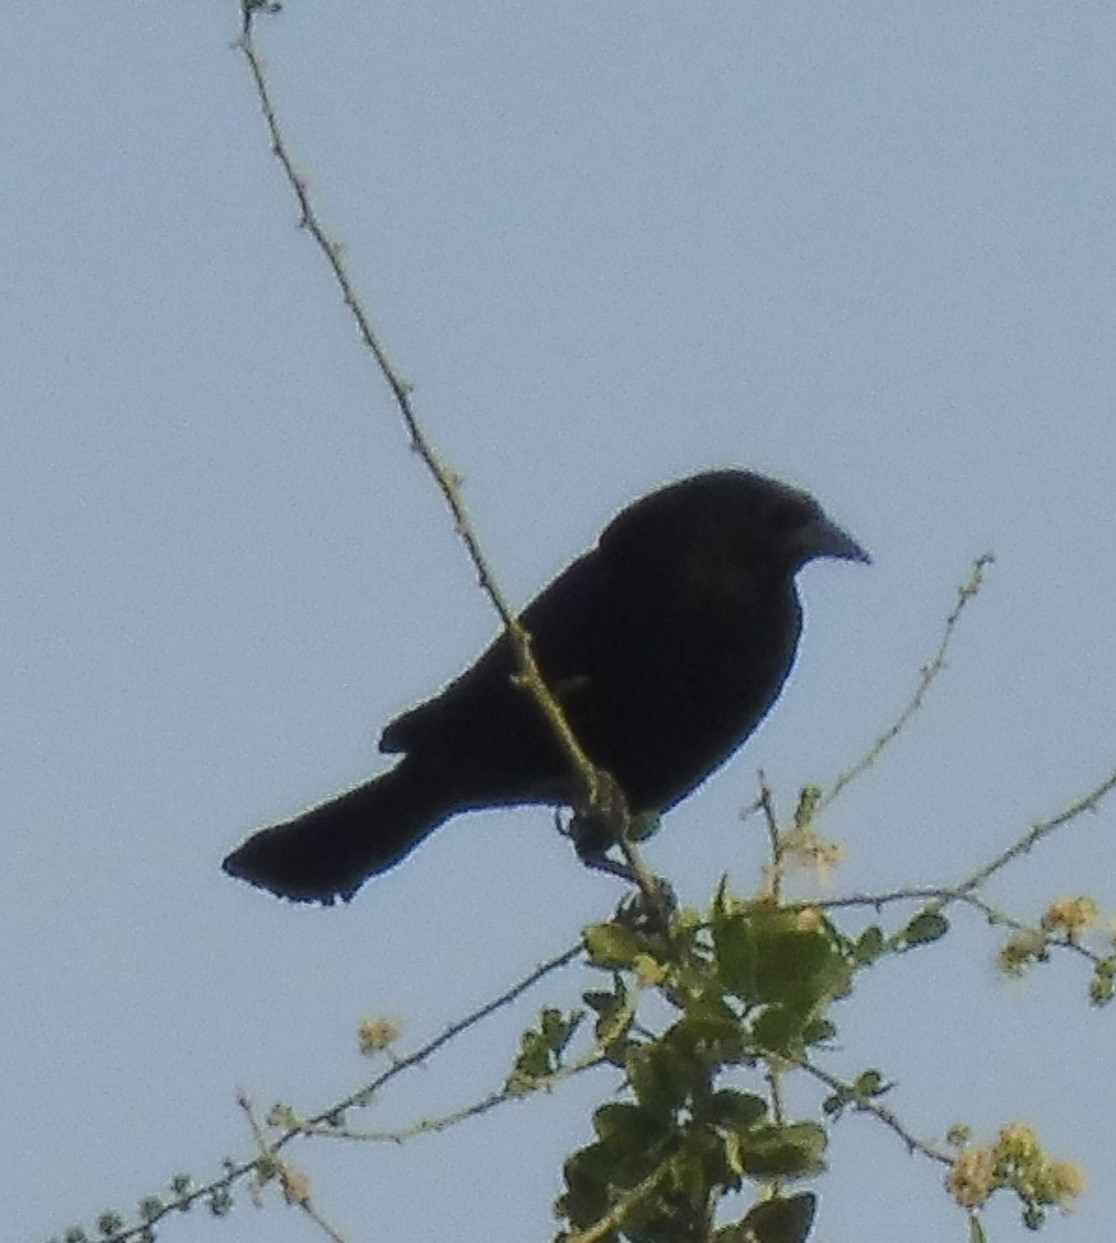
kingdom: Animalia
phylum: Chordata
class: Aves
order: Passeriformes
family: Icteridae
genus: Molothrus
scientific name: Molothrus aeneus
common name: Bronzed cowbird
